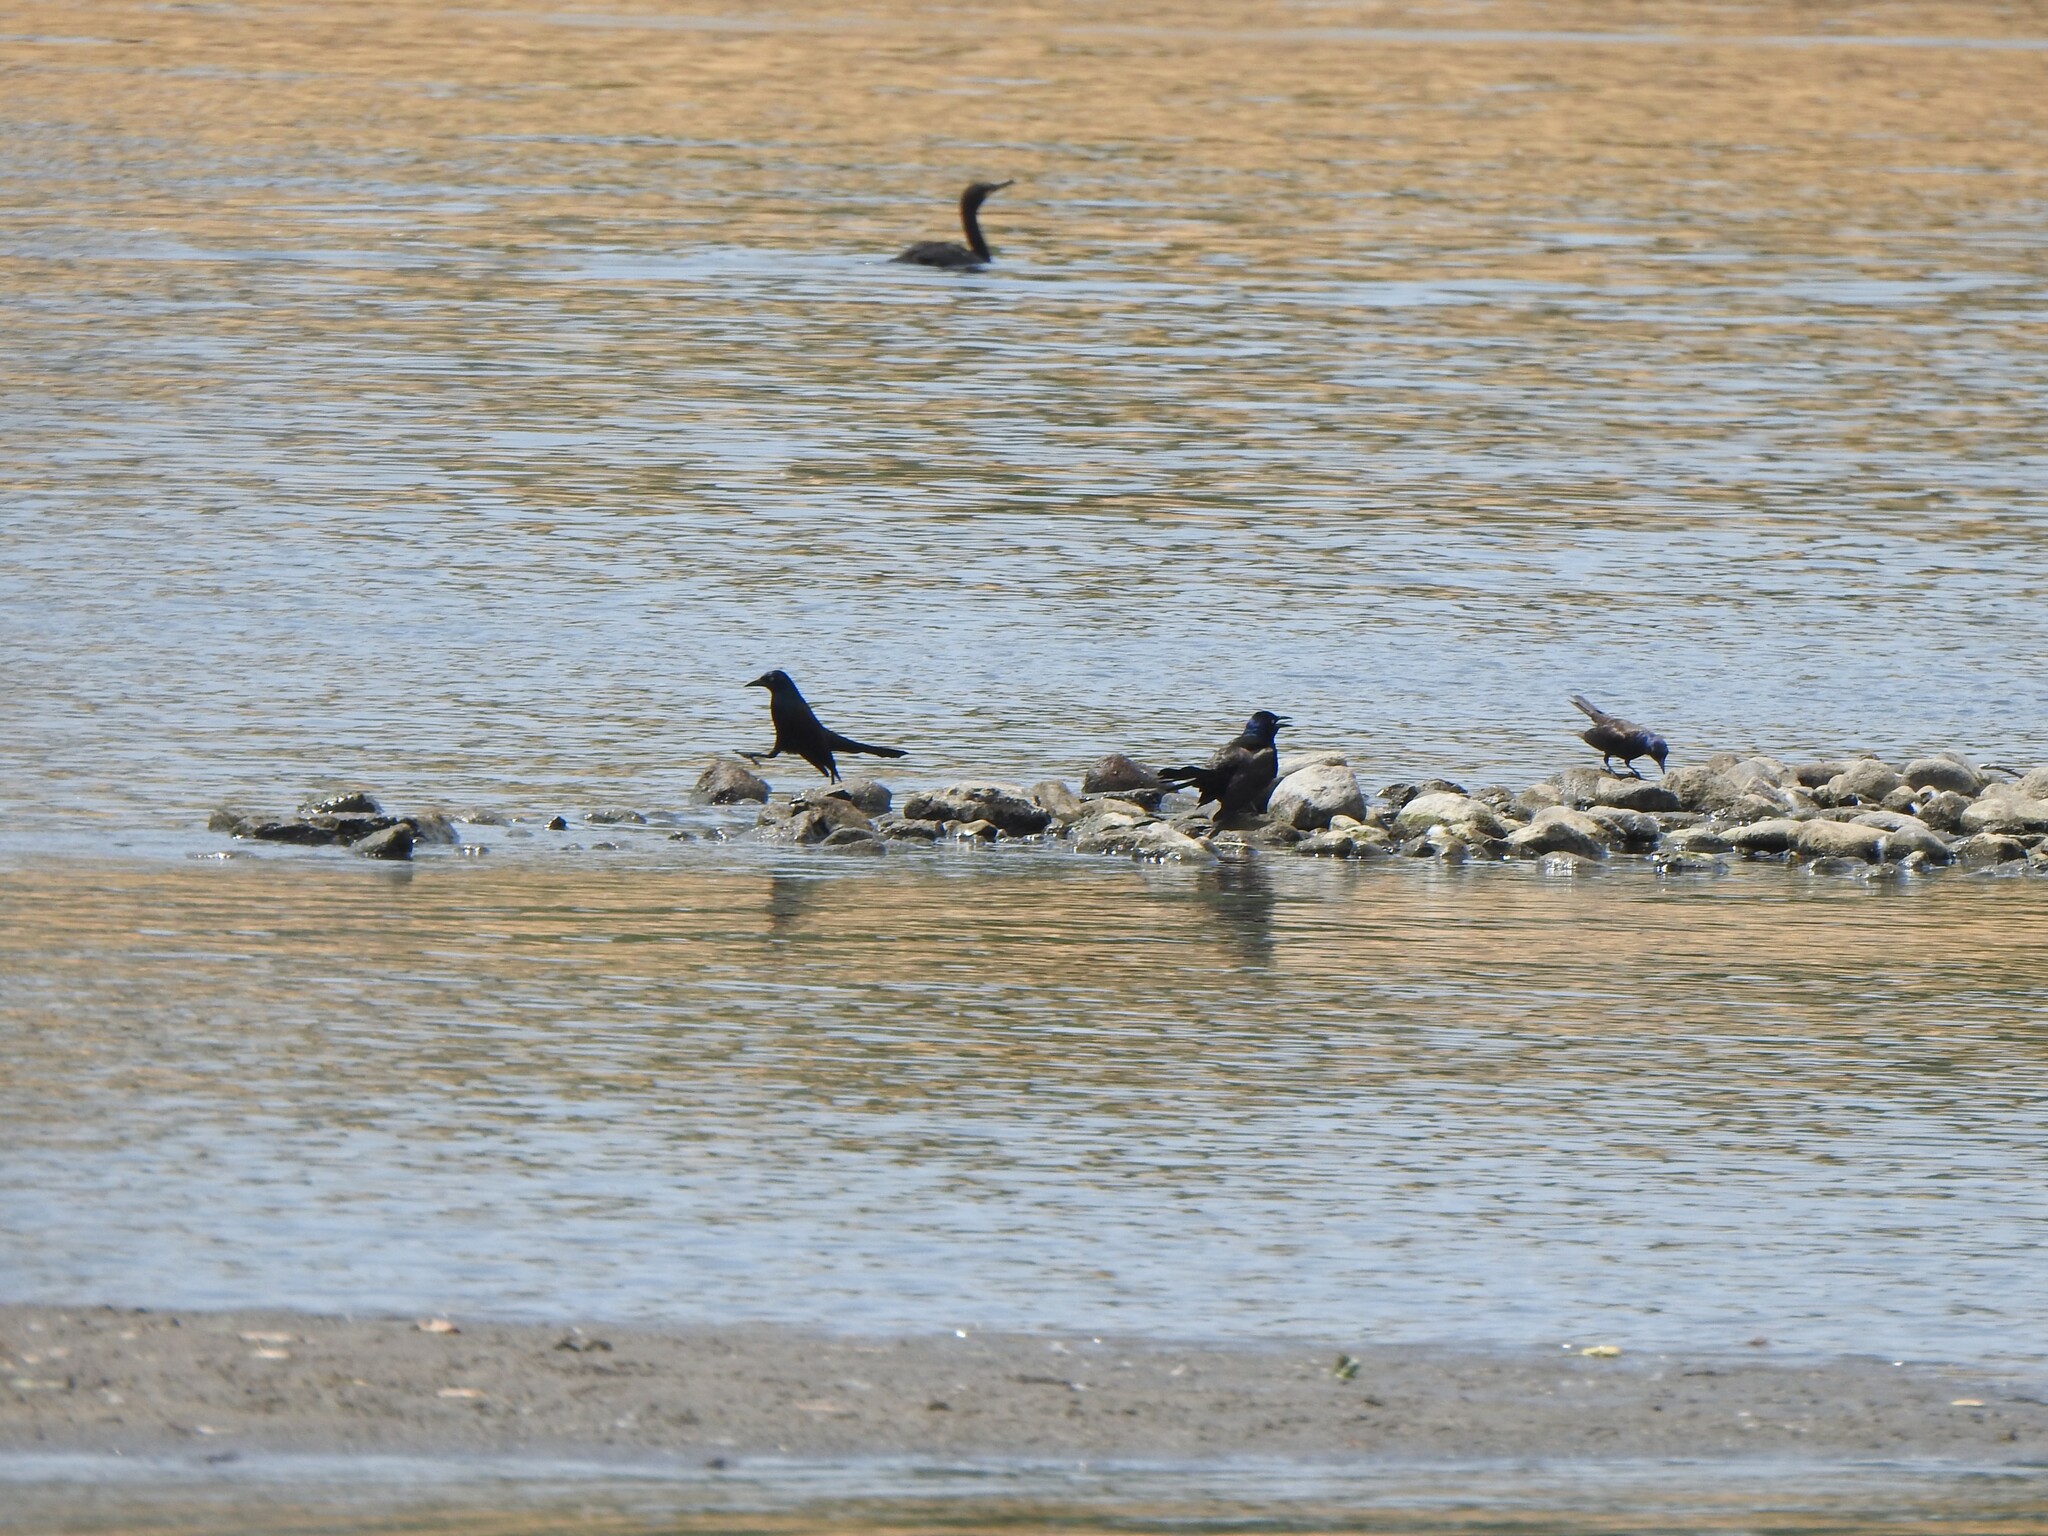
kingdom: Animalia
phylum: Chordata
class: Aves
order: Passeriformes
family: Icteridae
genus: Quiscalus
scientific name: Quiscalus quiscula
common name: Common grackle
